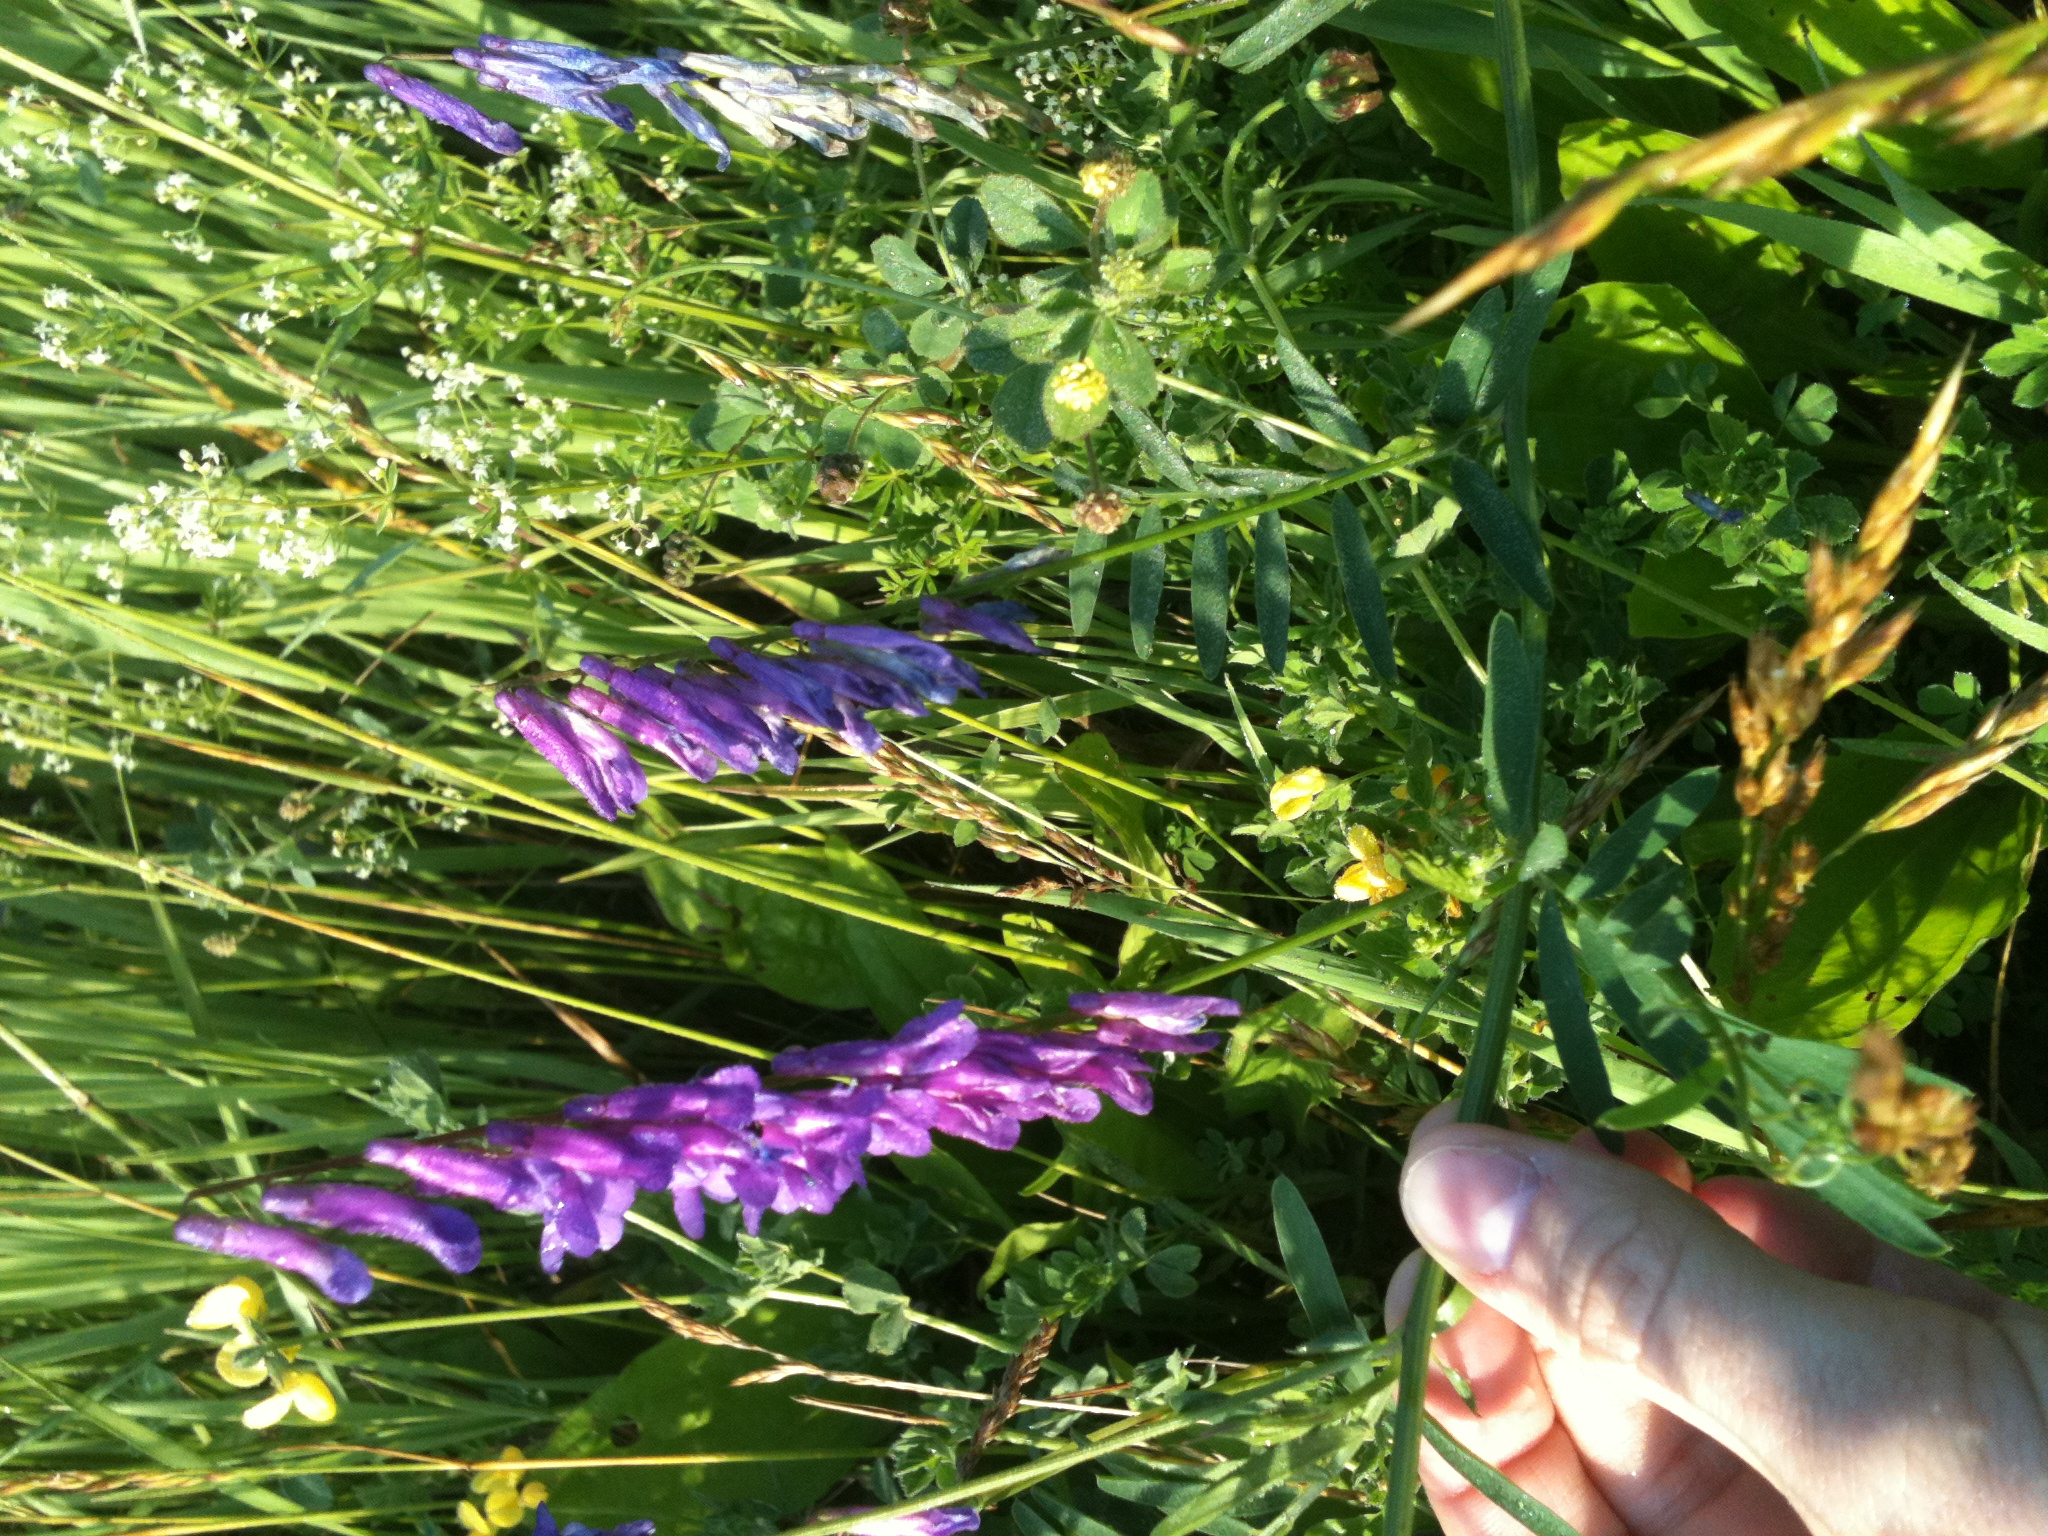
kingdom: Plantae
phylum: Tracheophyta
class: Magnoliopsida
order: Fabales
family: Fabaceae
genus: Vicia
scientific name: Vicia villosa
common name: Fodder vetch
